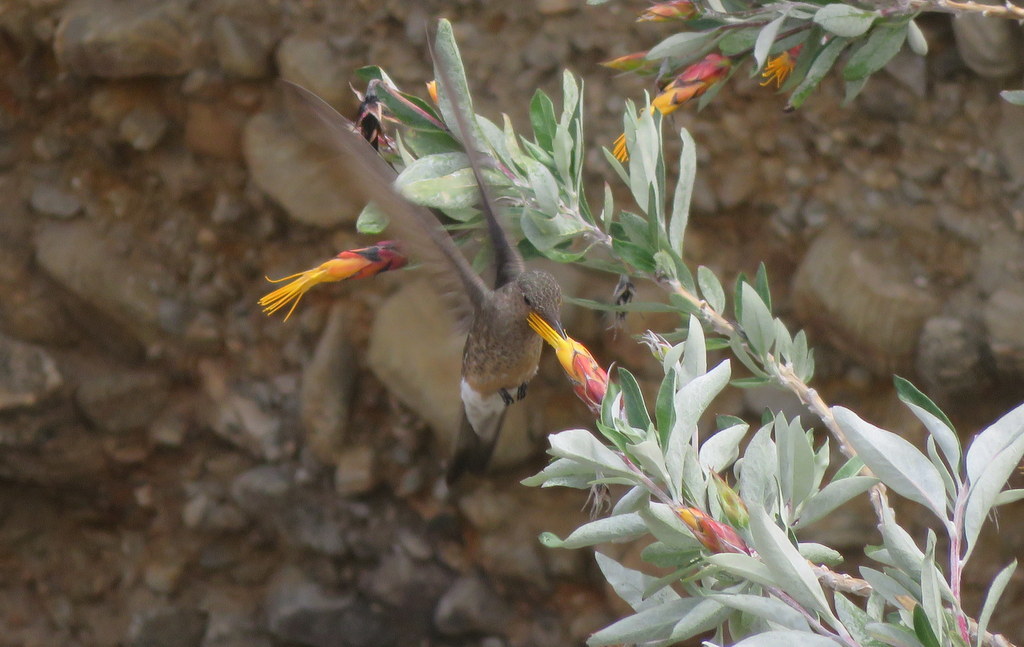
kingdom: Animalia
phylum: Chordata
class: Aves
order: Apodiformes
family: Trochilidae
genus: Patagona
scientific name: Patagona gigas
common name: Giant hummingbird
